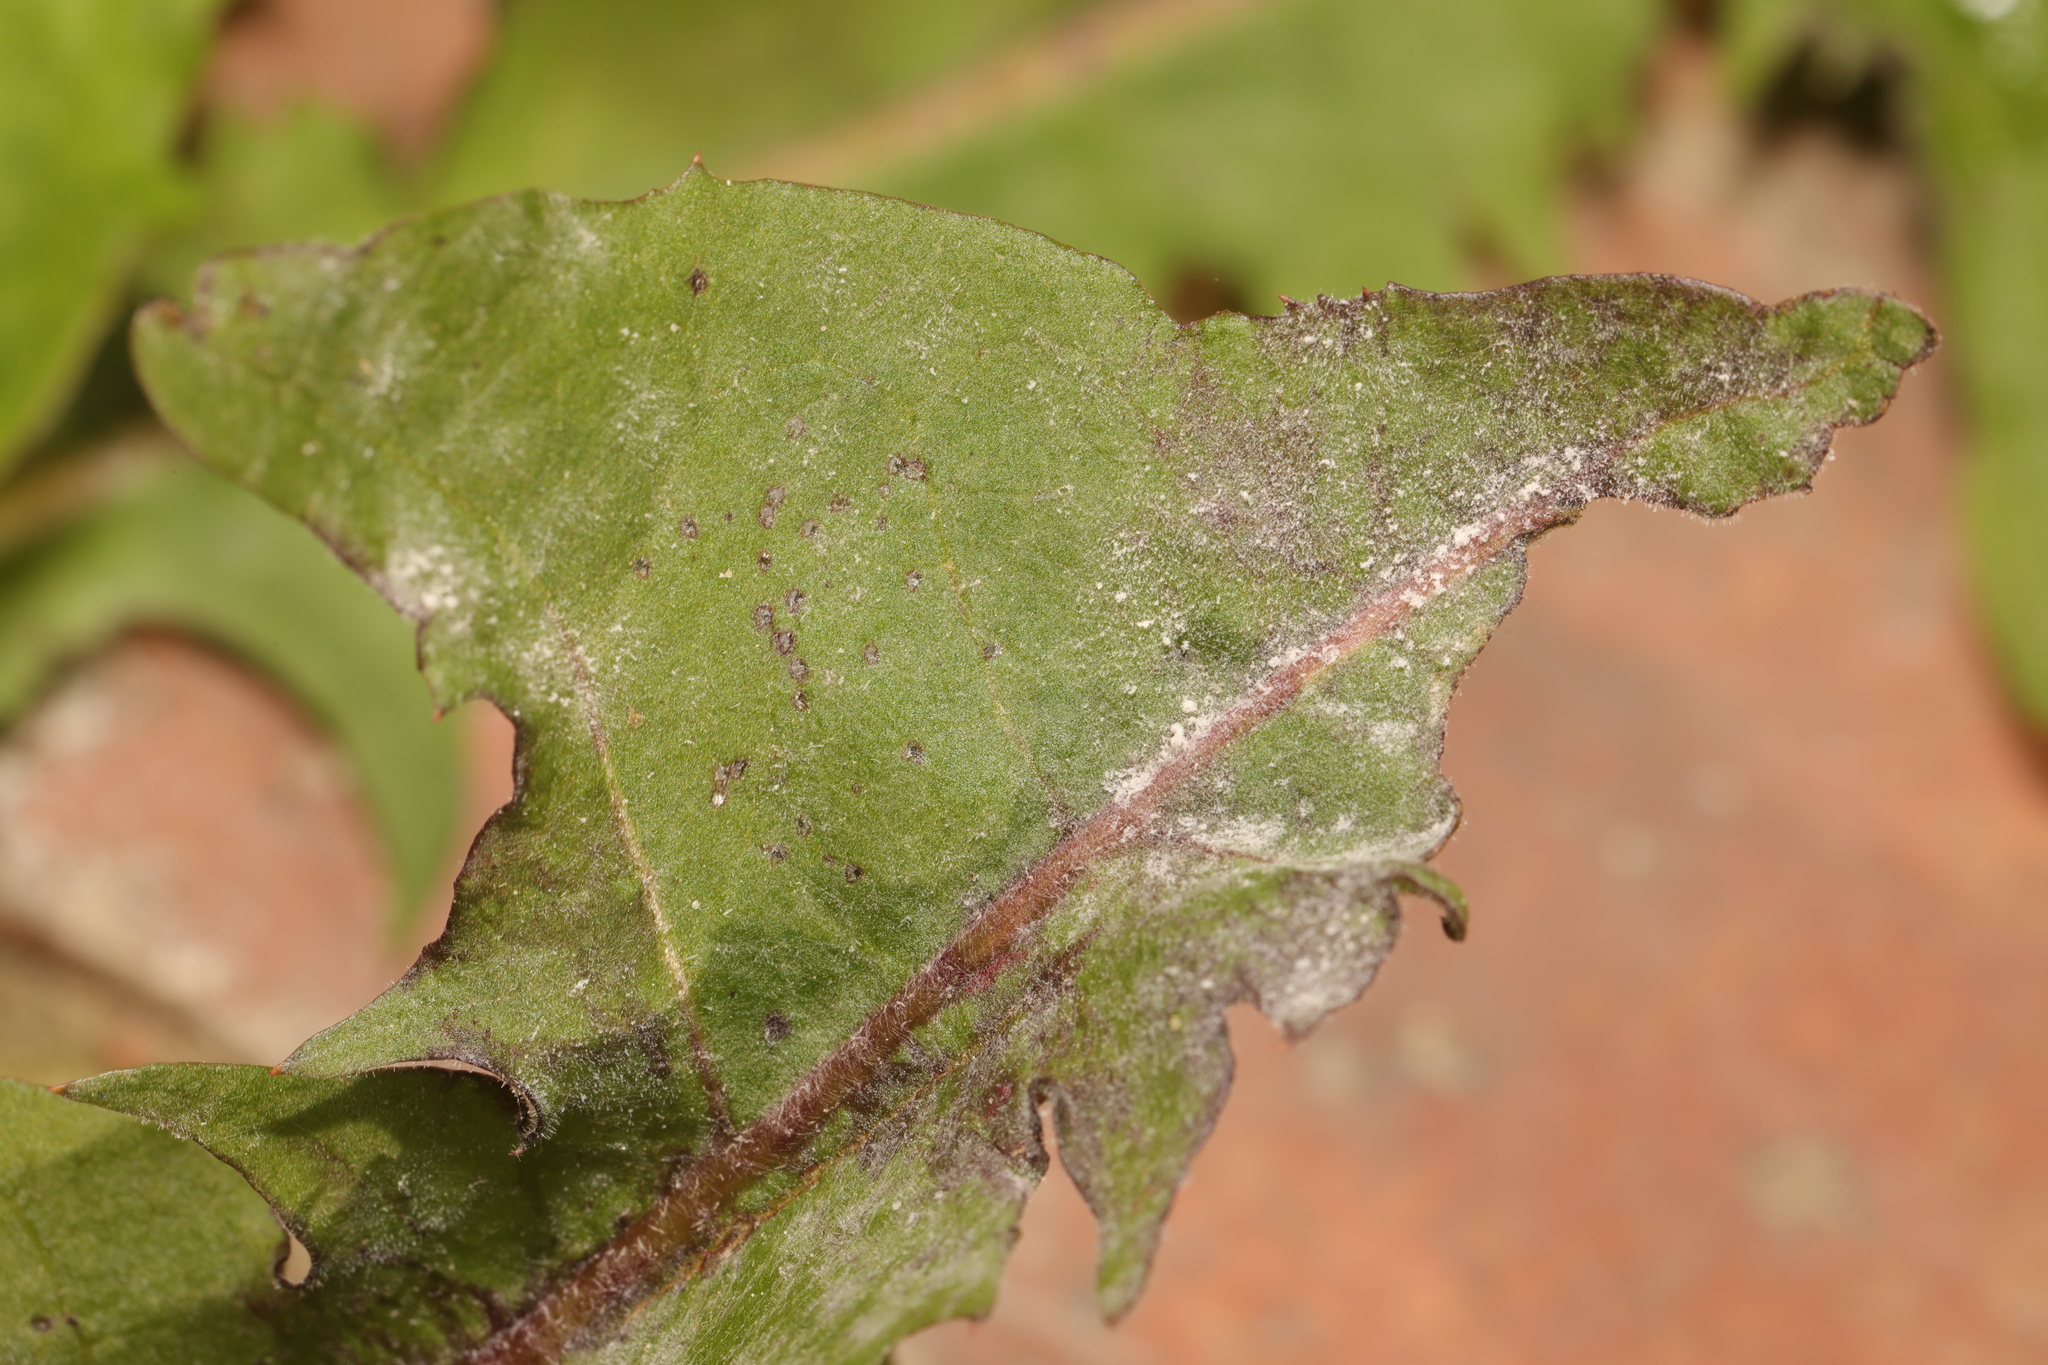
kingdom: Fungi
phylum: Ascomycota
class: Leotiomycetes
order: Helotiales
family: Erysiphaceae
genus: Podosphaera
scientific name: Podosphaera erigerontis-canadensis
